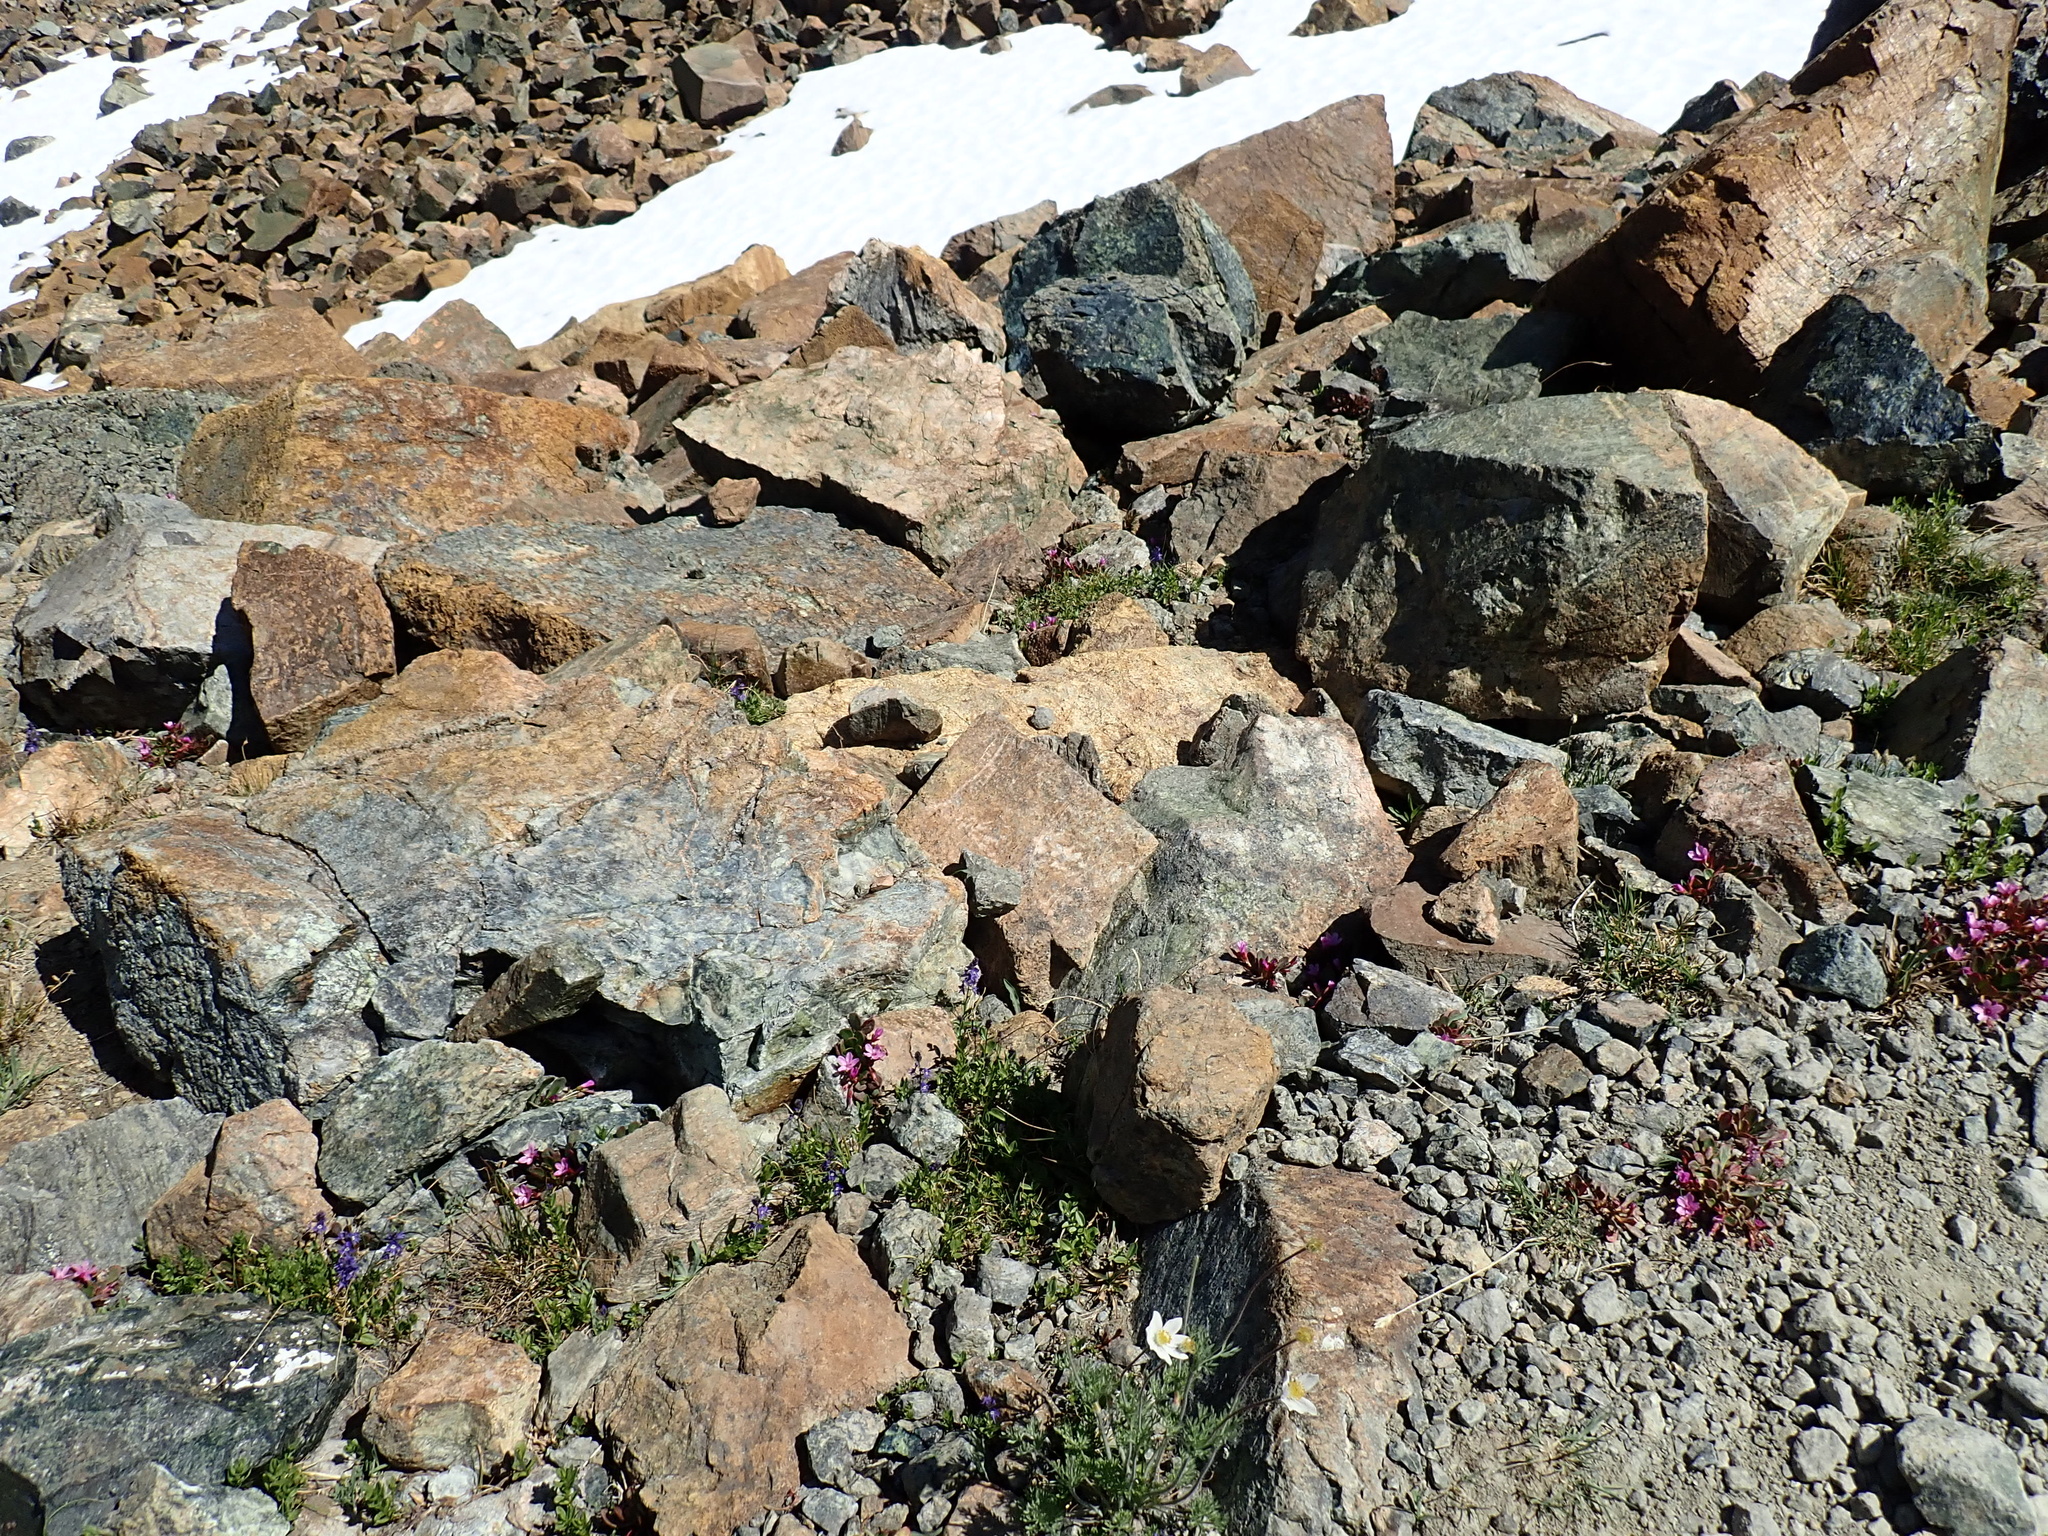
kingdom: Plantae
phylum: Tracheophyta
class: Magnoliopsida
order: Caryophyllales
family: Montiaceae
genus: Claytonia
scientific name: Claytonia megarhiza
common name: Alpine spring beauty
